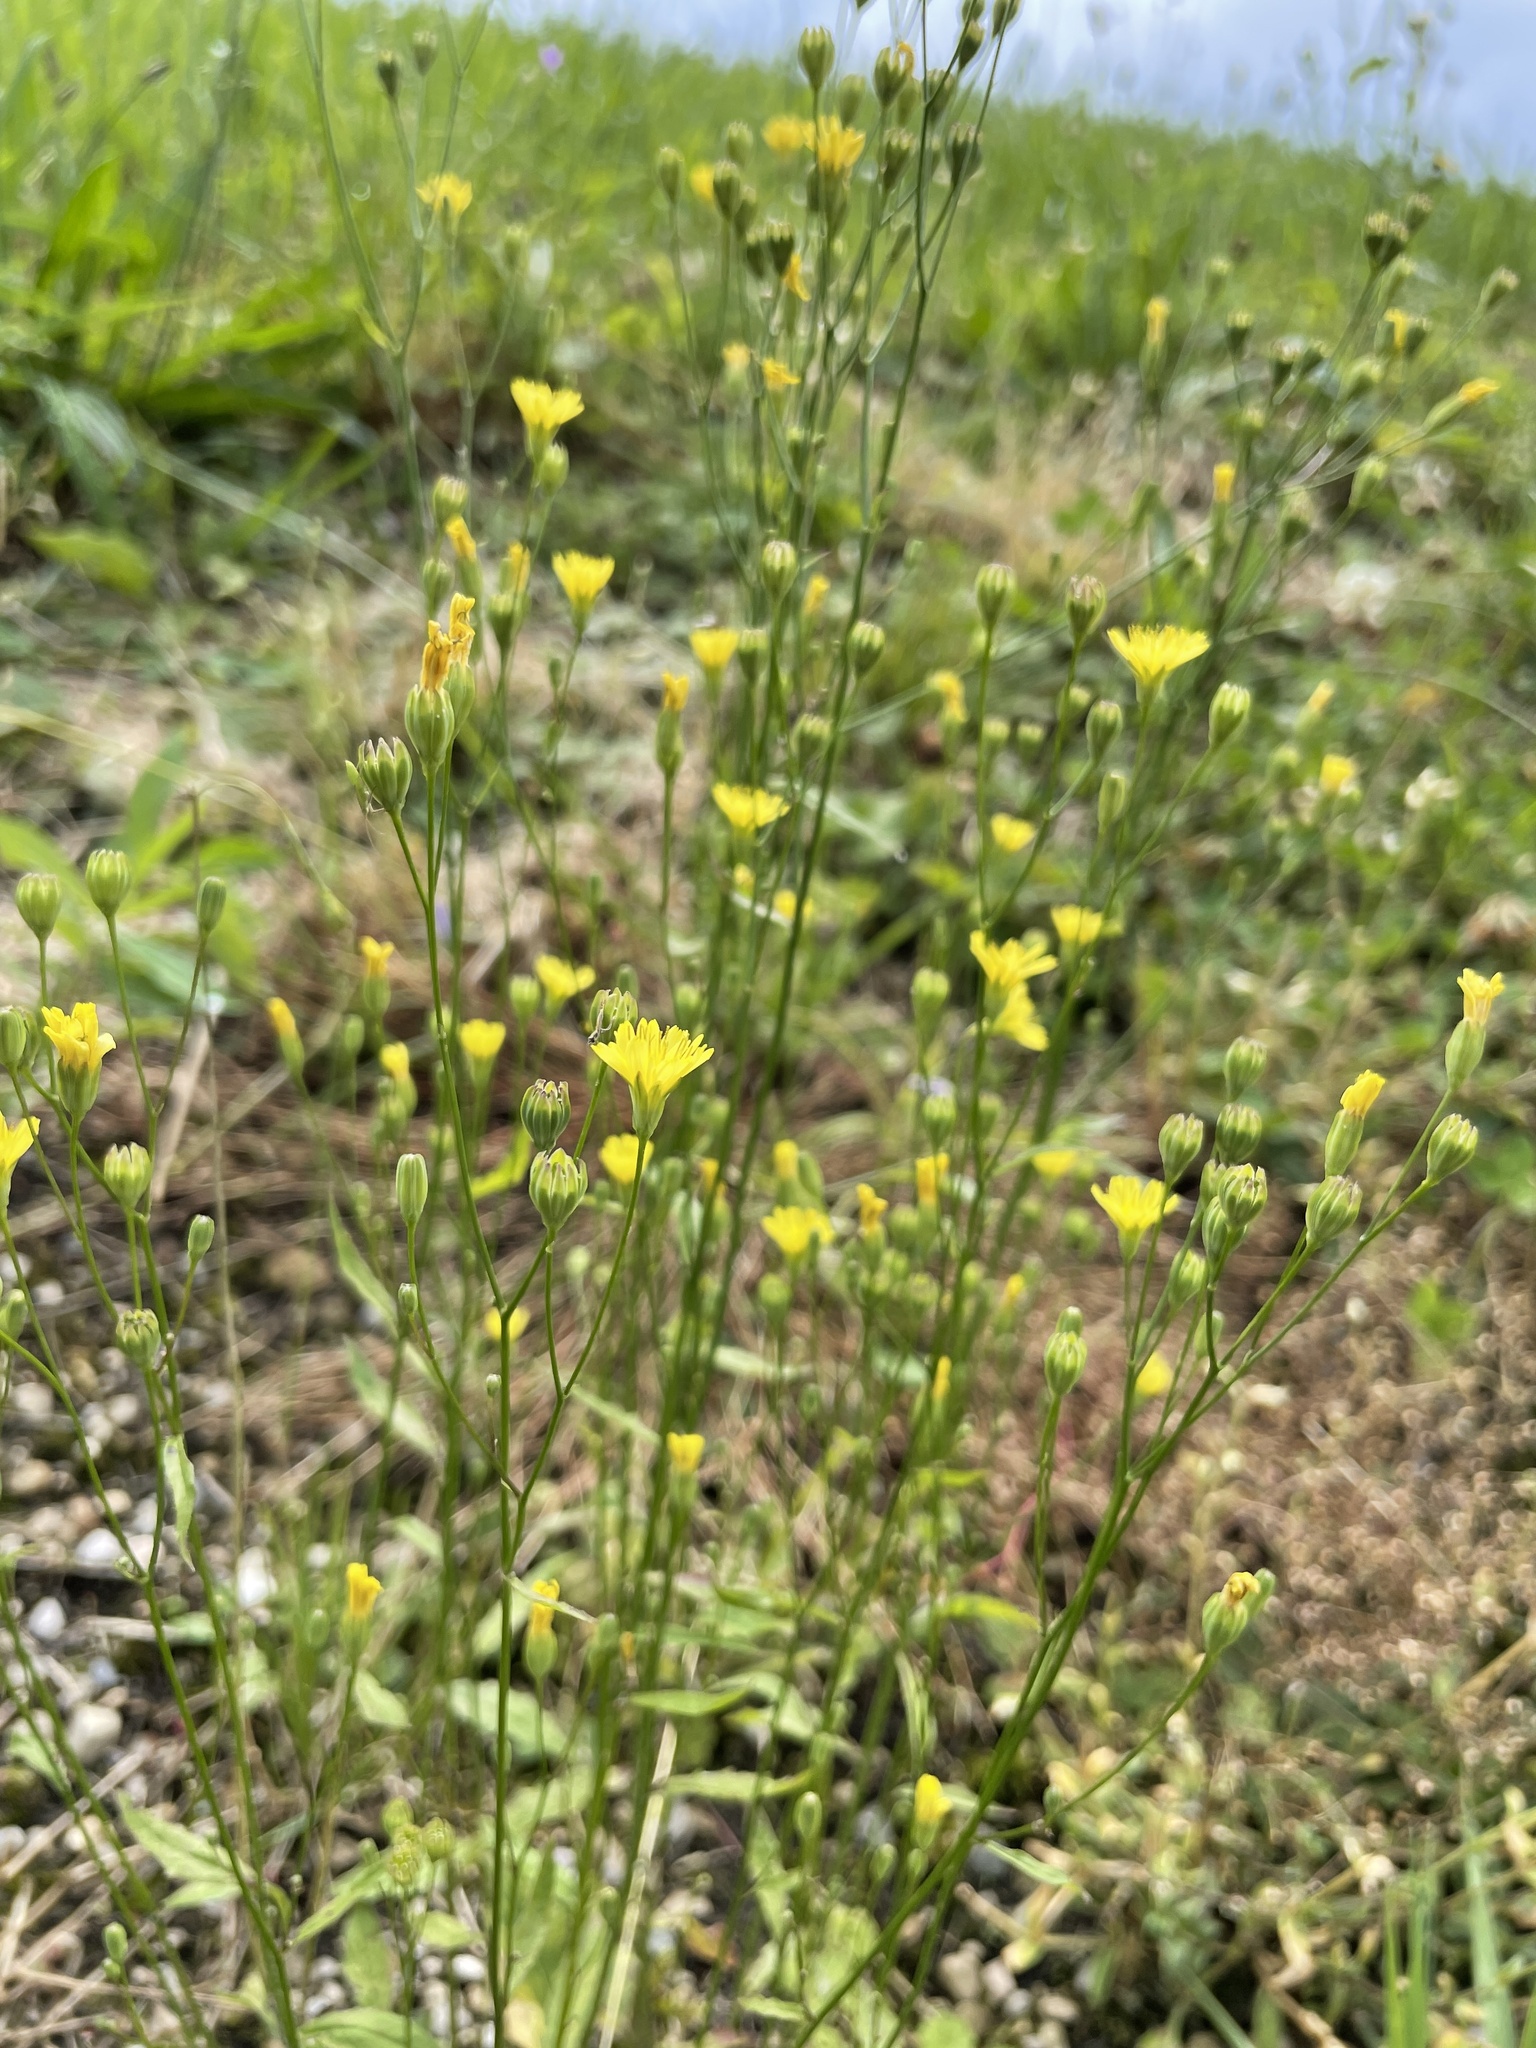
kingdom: Plantae
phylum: Tracheophyta
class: Magnoliopsida
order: Asterales
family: Asteraceae
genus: Lapsana
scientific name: Lapsana communis
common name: Nipplewort
